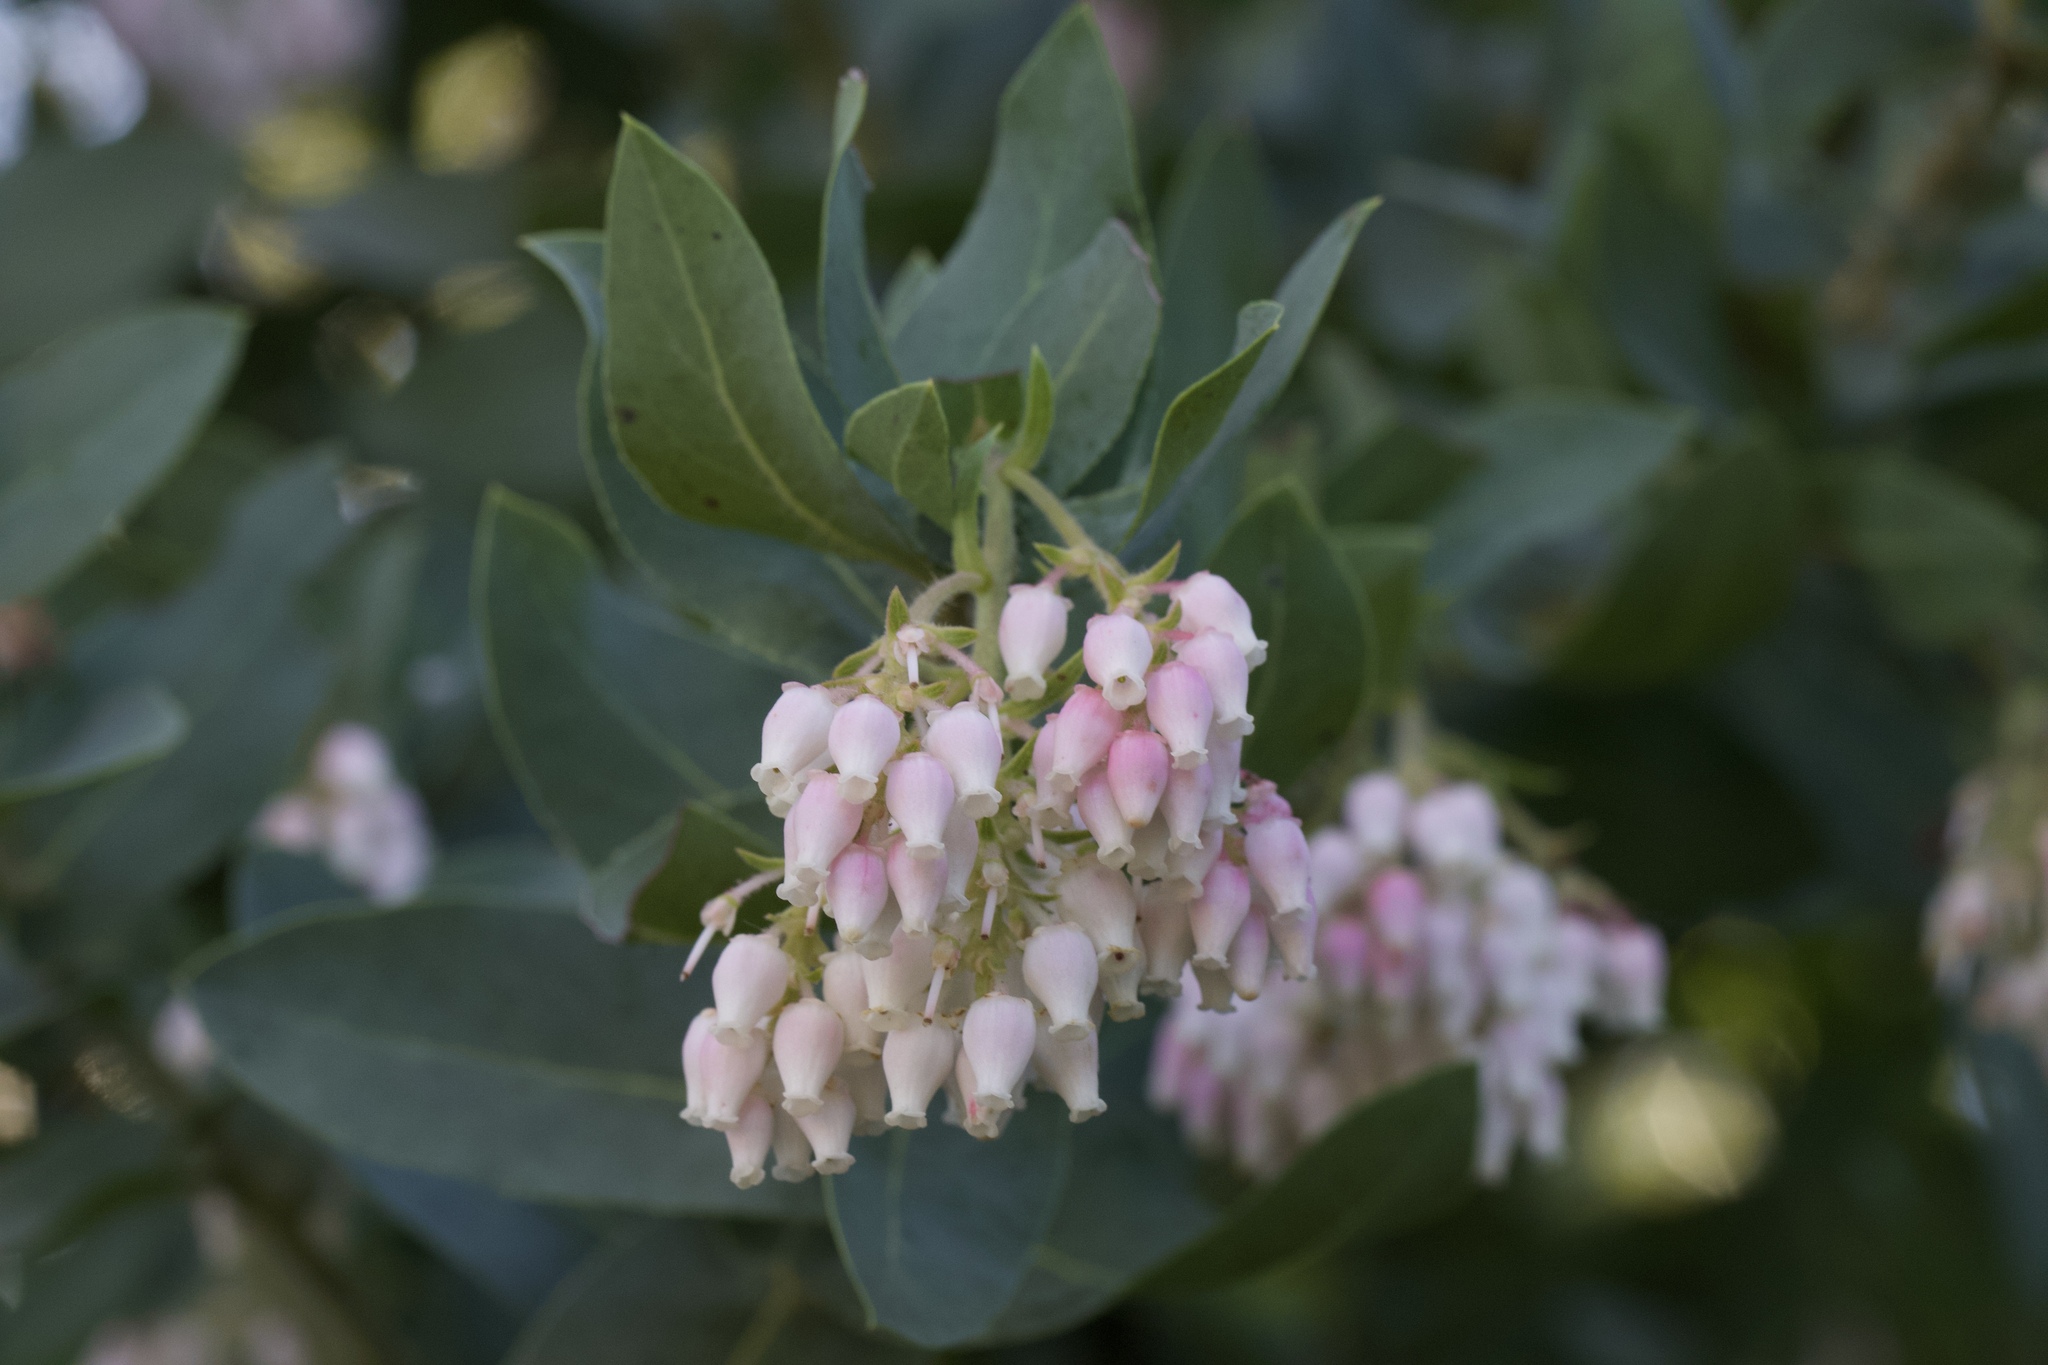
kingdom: Plantae
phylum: Tracheophyta
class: Magnoliopsida
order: Ericales
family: Ericaceae
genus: Arctostaphylos
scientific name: Arctostaphylos andersonii
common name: Santa cruz manzanita
